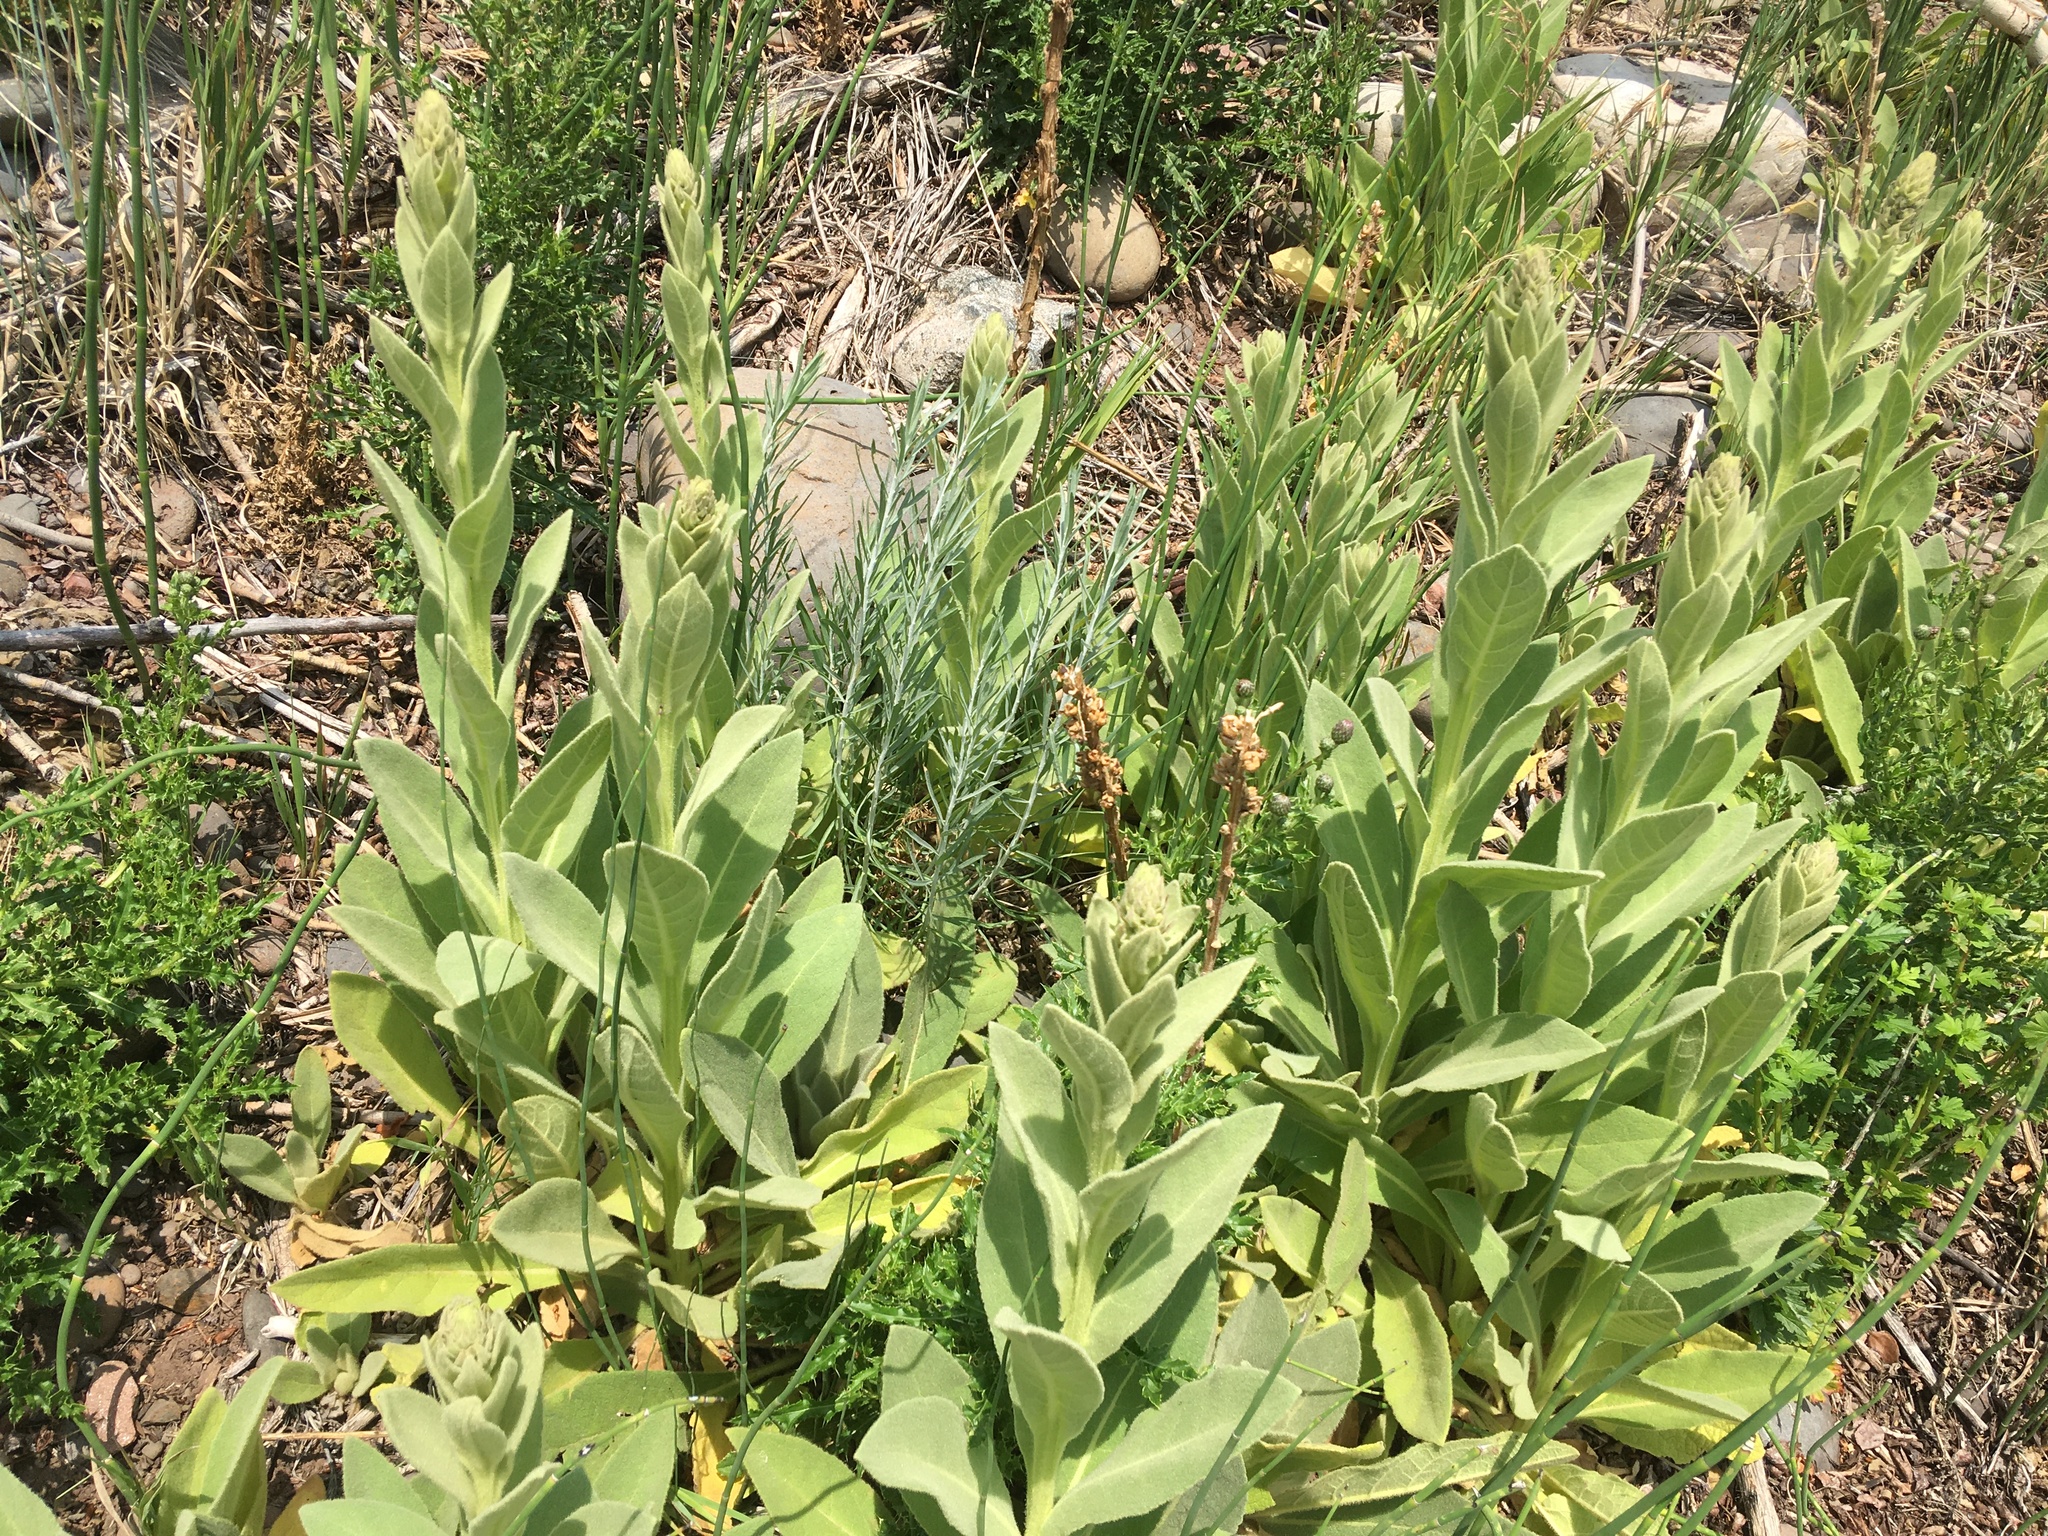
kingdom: Plantae
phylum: Tracheophyta
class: Magnoliopsida
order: Lamiales
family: Scrophulariaceae
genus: Verbascum
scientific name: Verbascum thapsus
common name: Common mullein
